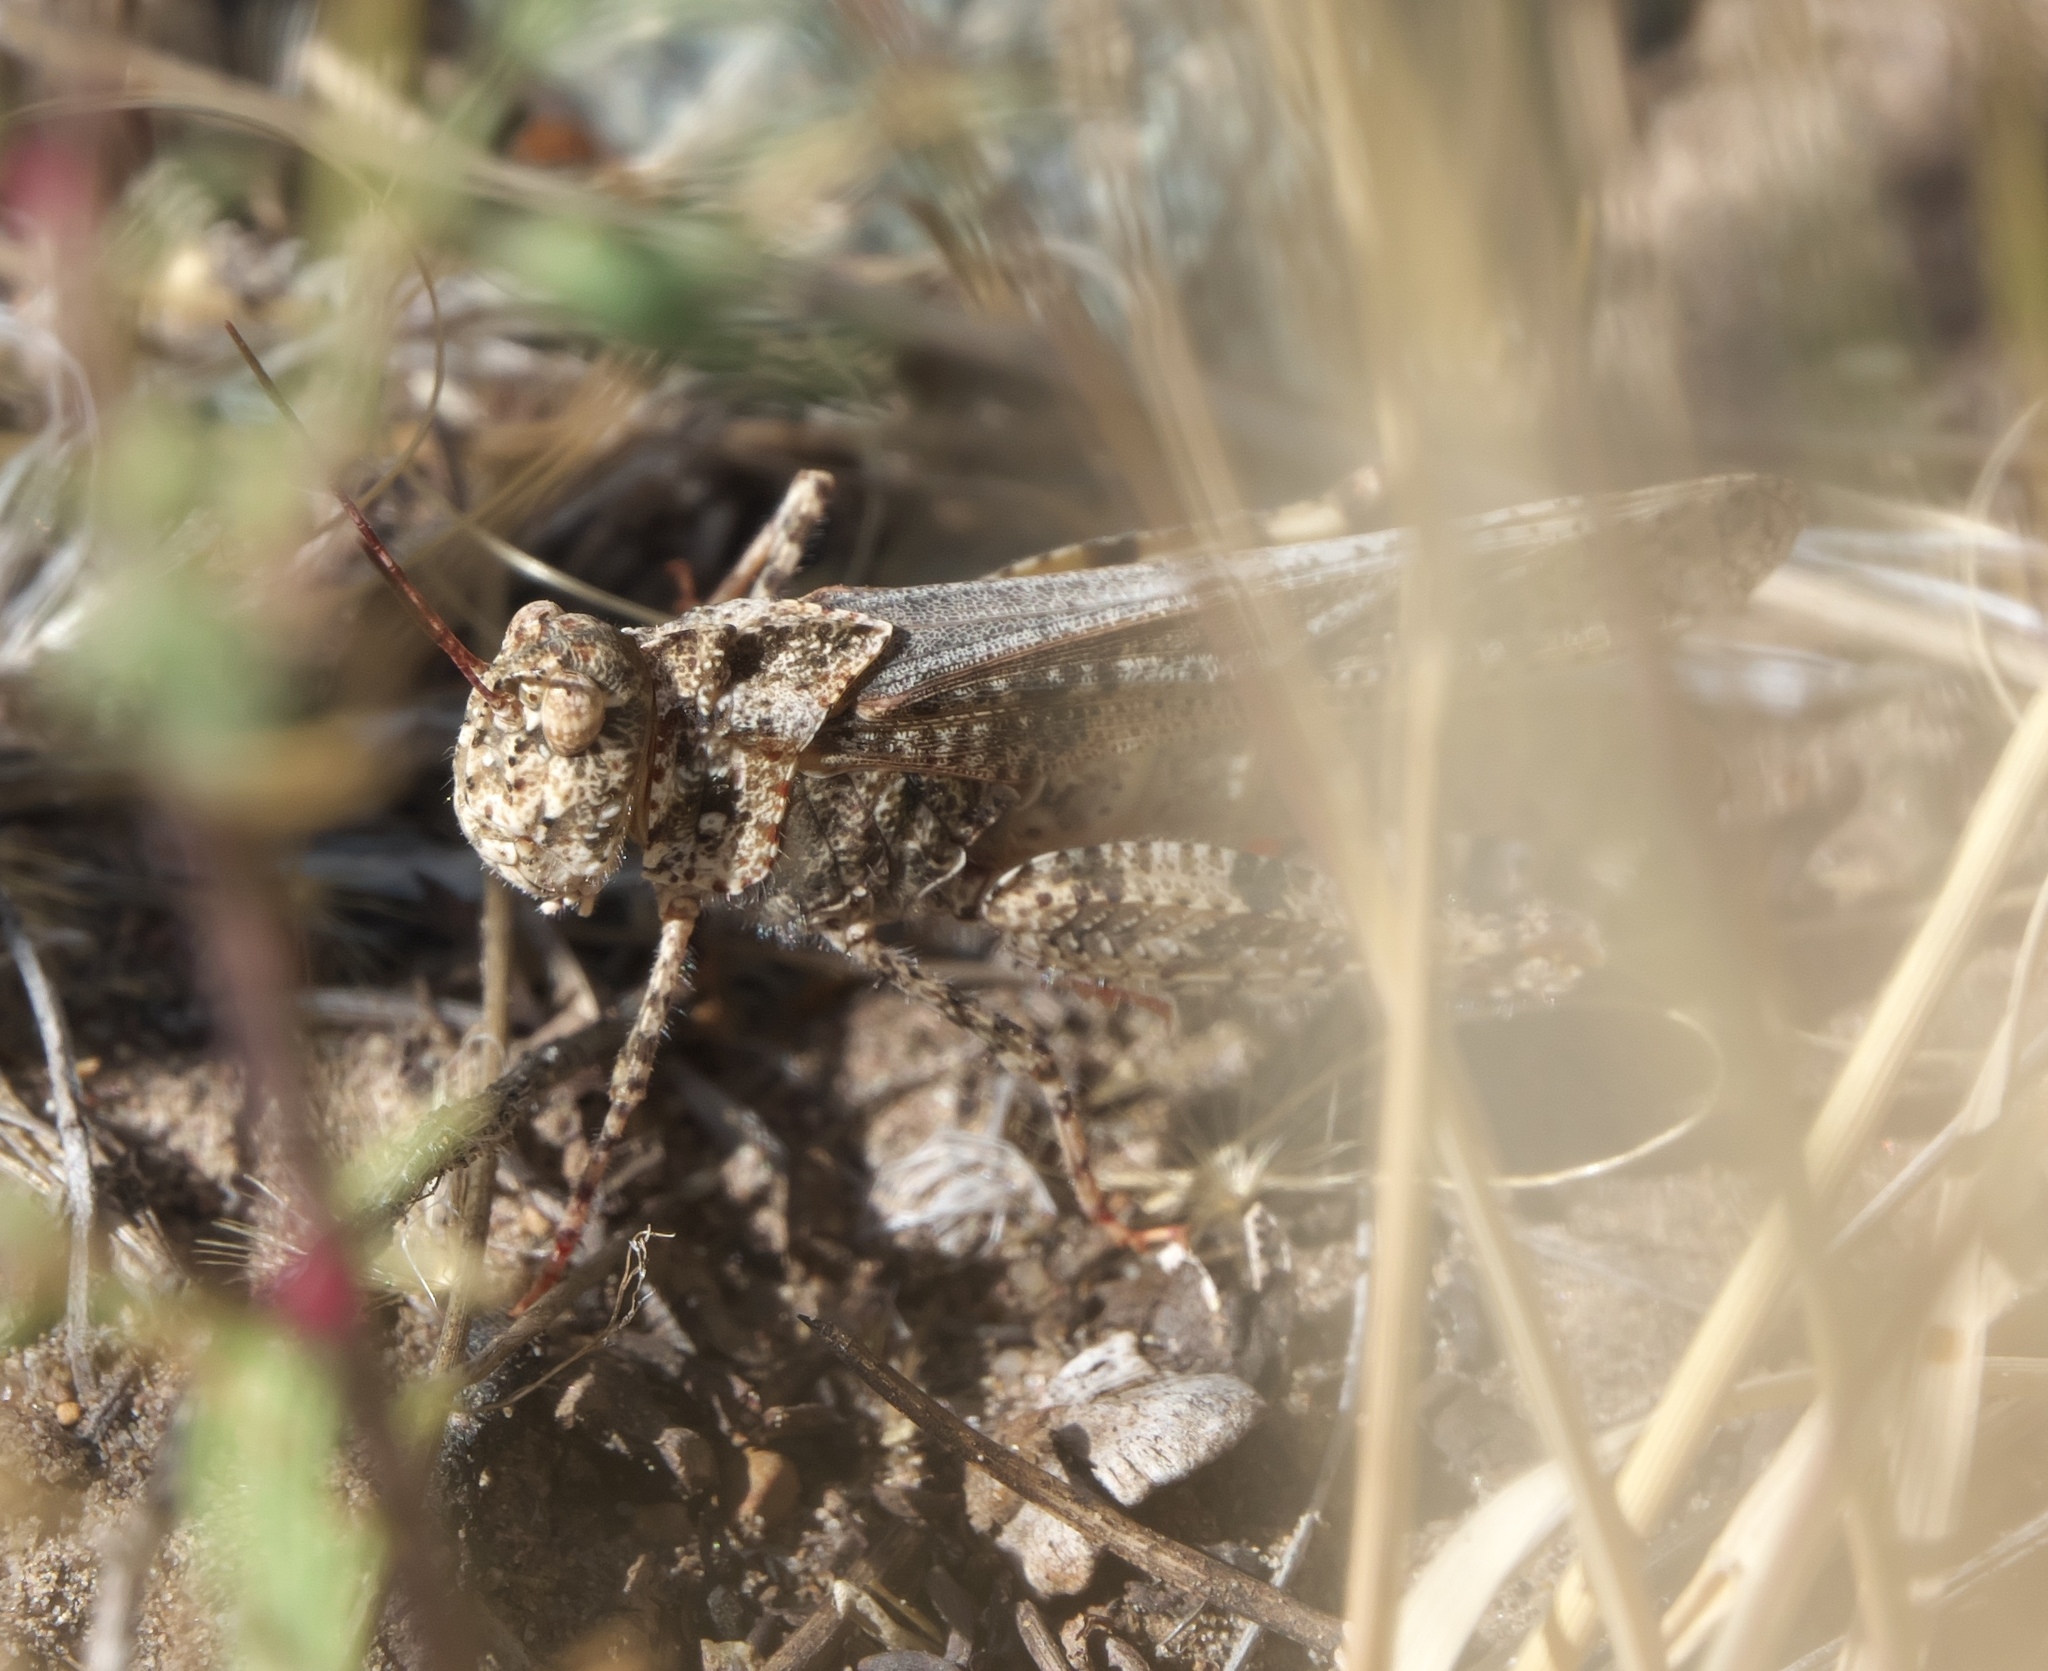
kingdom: Animalia
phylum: Arthropoda
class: Insecta
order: Orthoptera
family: Acrididae
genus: Spharagemon
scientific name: Spharagemon collare
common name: Mottled sand grasshopper
